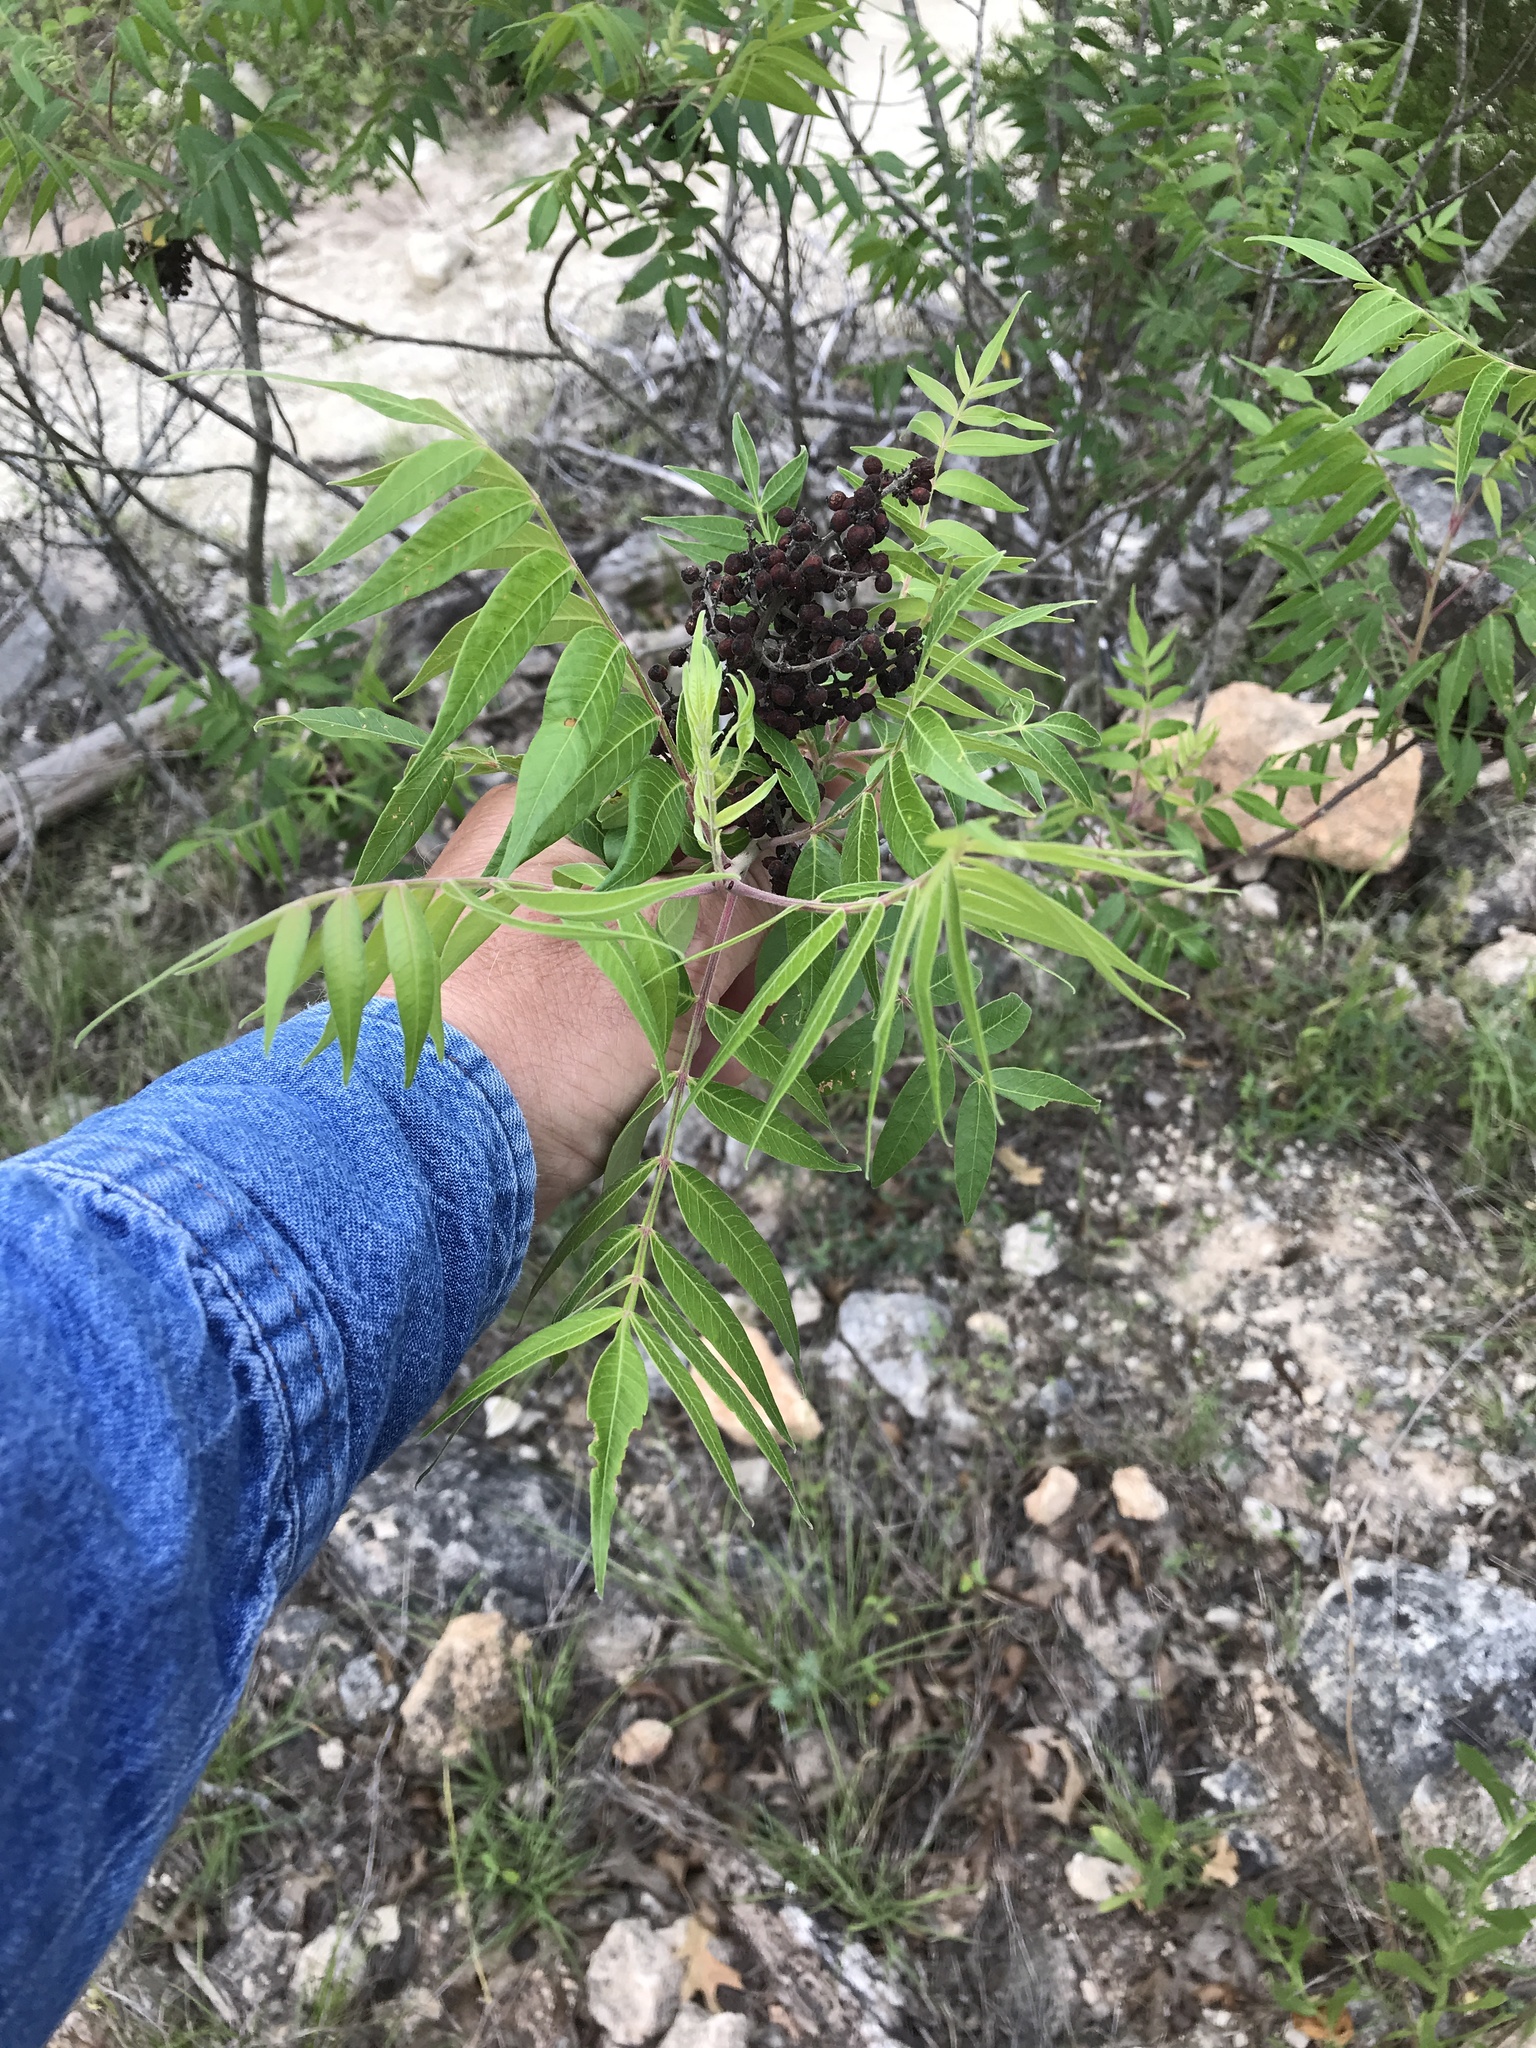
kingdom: Plantae
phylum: Tracheophyta
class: Magnoliopsida
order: Sapindales
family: Anacardiaceae
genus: Rhus
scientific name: Rhus lanceolata
